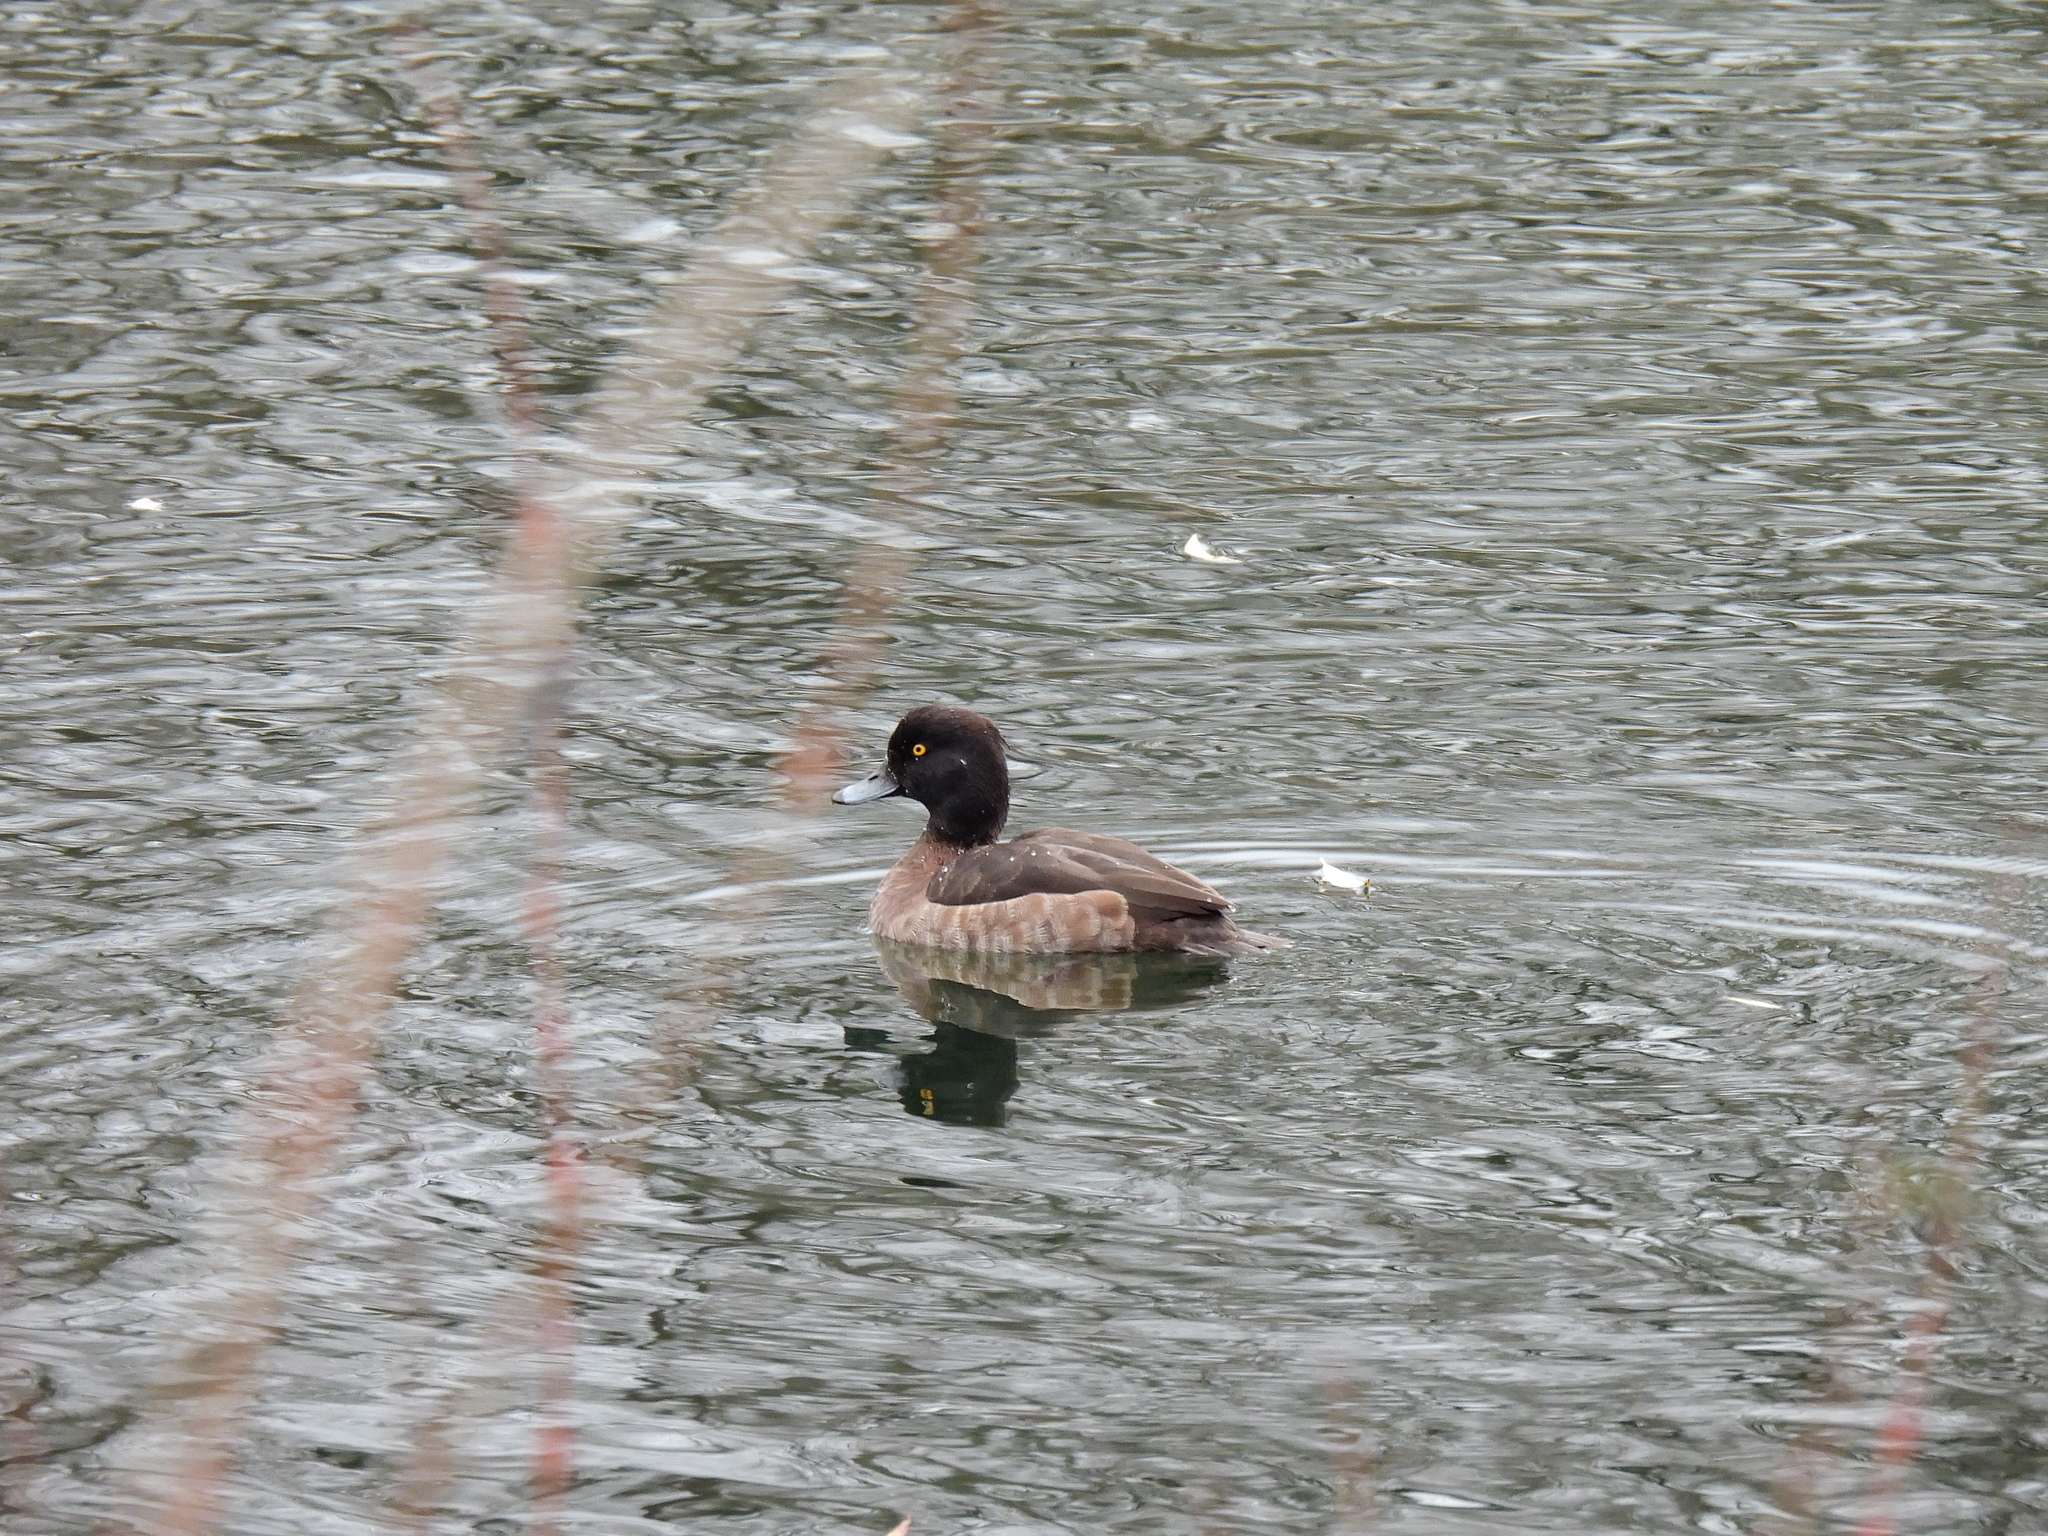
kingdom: Animalia
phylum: Chordata
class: Aves
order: Anseriformes
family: Anatidae
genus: Aythya
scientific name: Aythya fuligula
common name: Tufted duck
